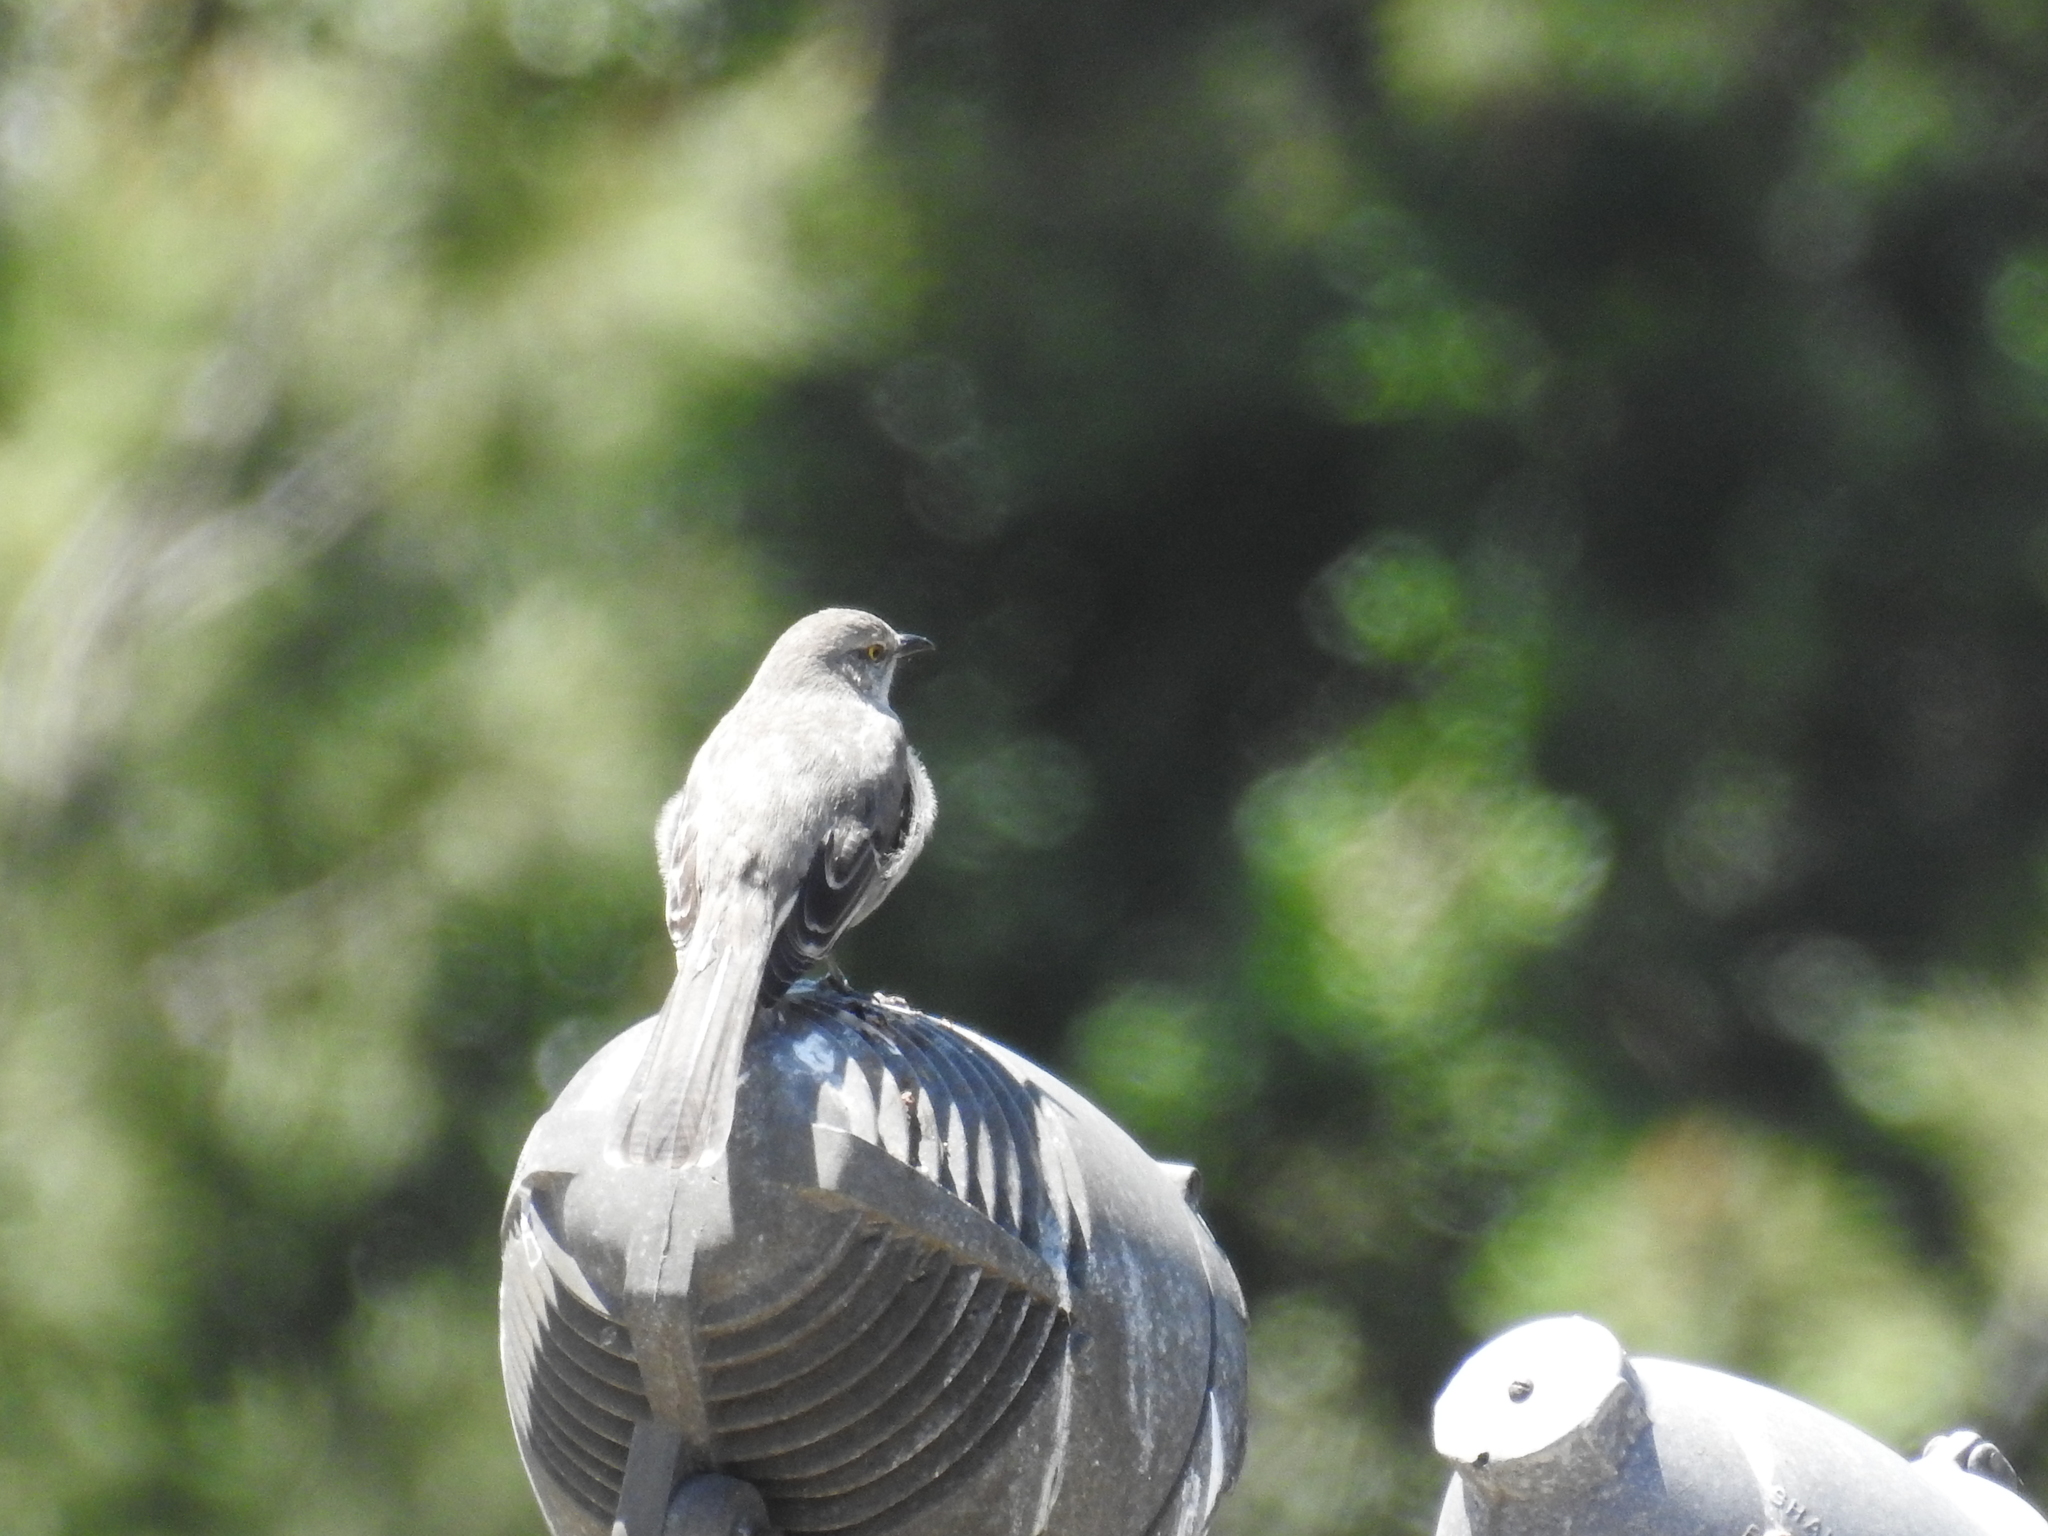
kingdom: Animalia
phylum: Chordata
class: Aves
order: Passeriformes
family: Mimidae
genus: Mimus
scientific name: Mimus polyglottos
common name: Northern mockingbird
